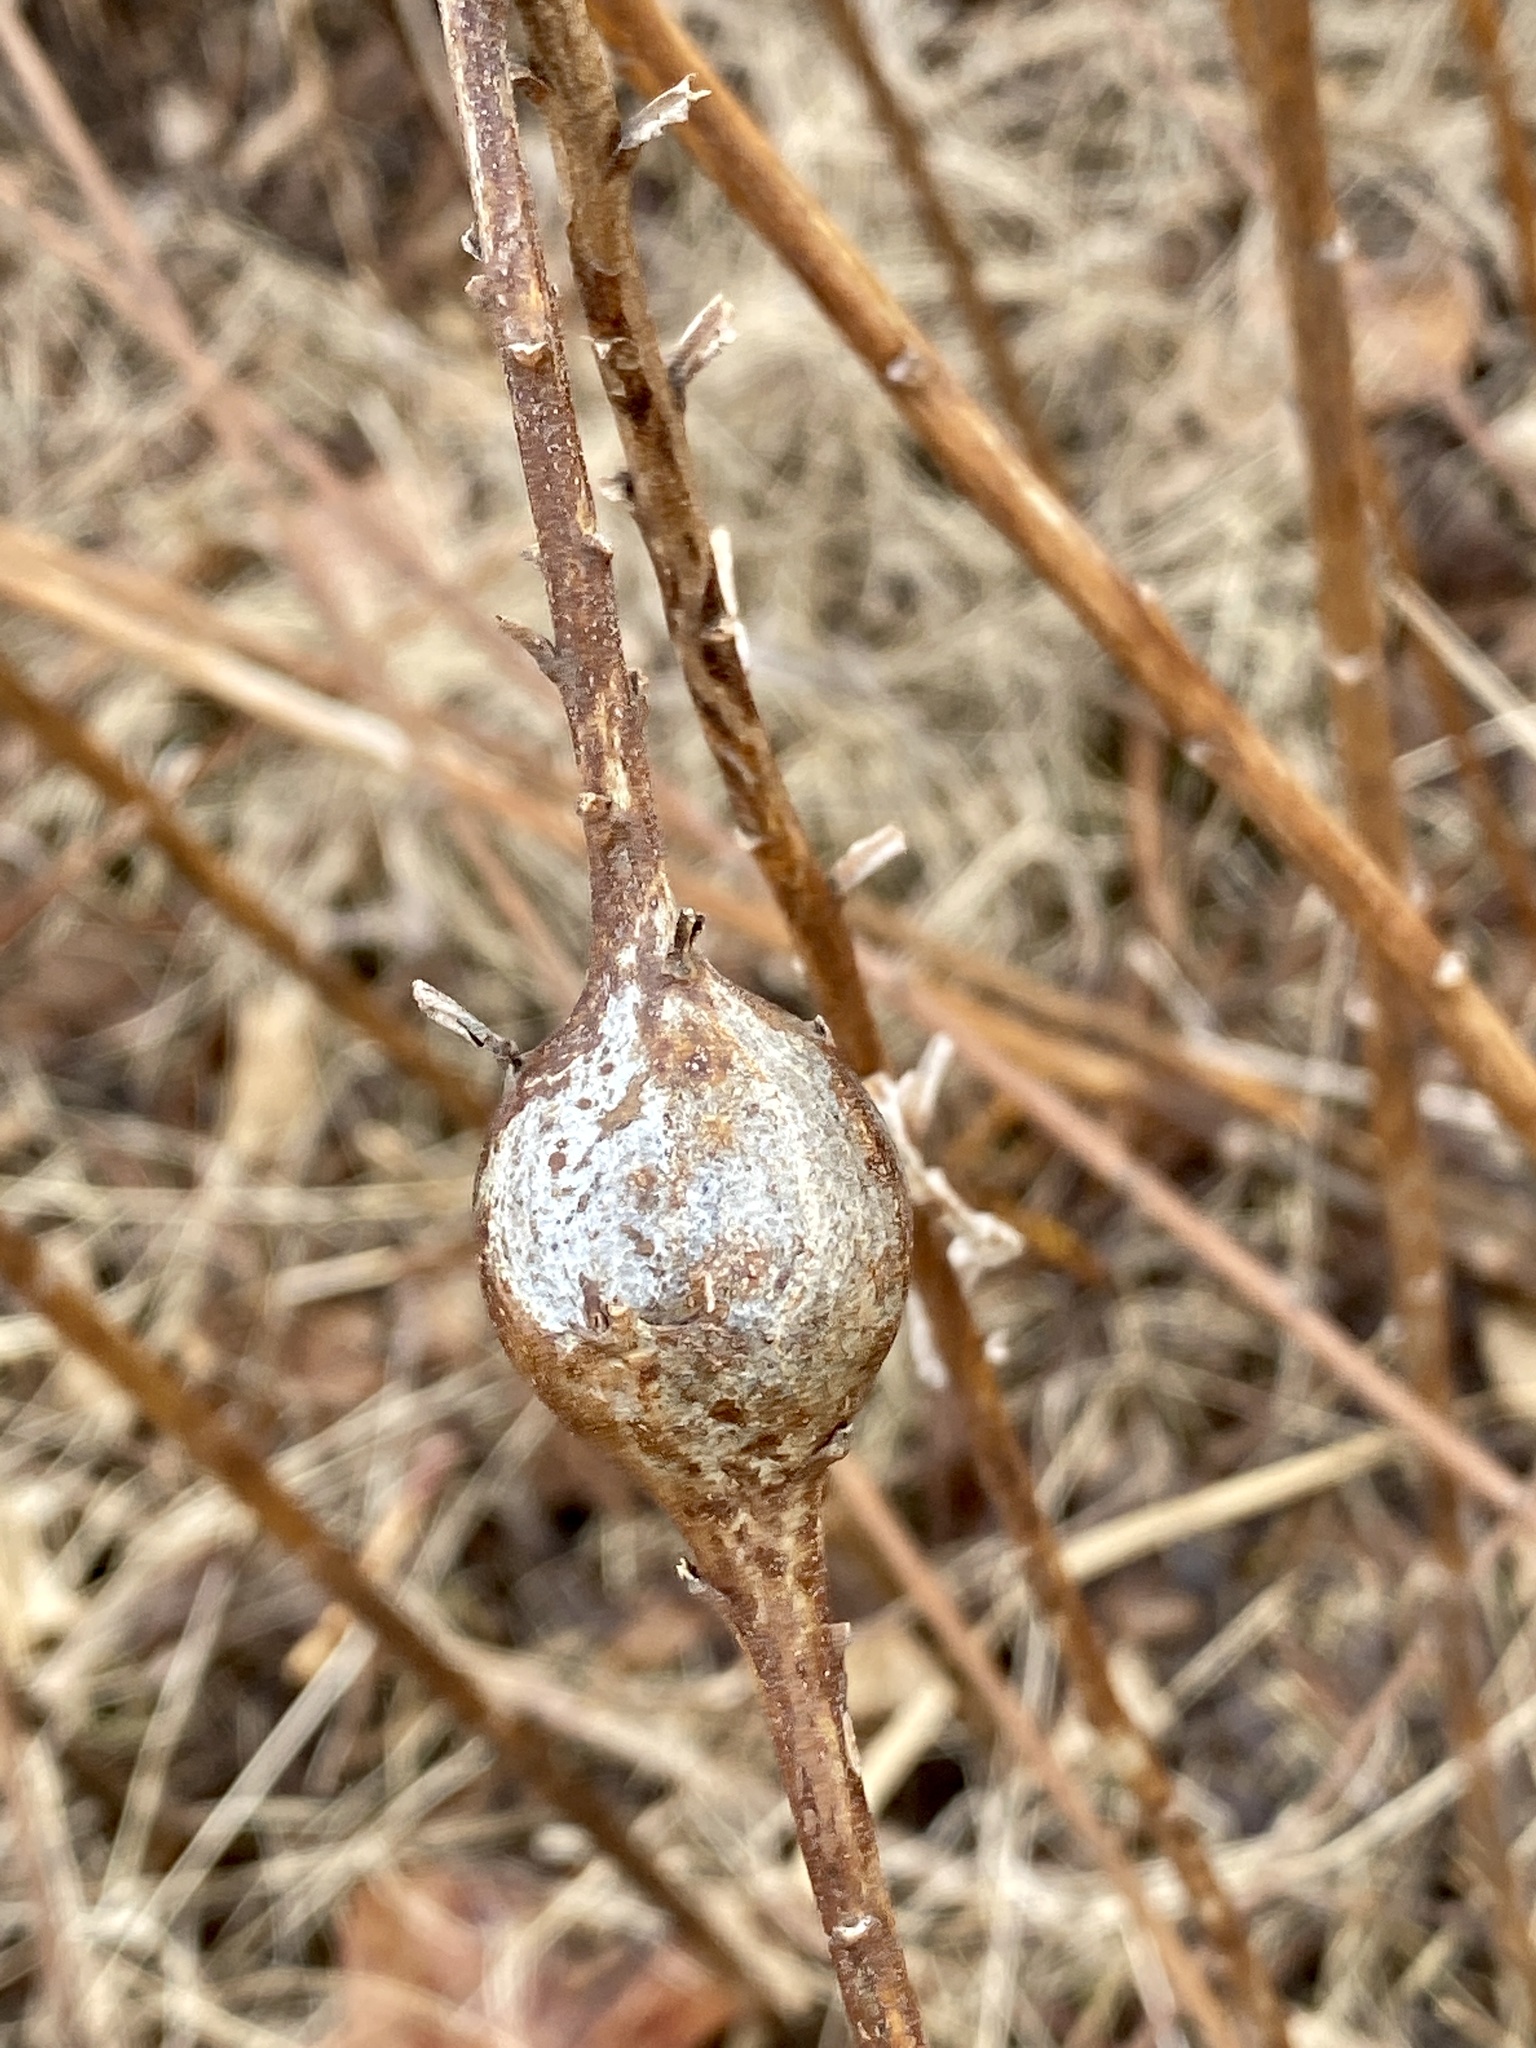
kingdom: Animalia
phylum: Arthropoda
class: Insecta
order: Diptera
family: Tephritidae
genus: Eurosta
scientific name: Eurosta solidaginis
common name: Goldenrod gall fly
